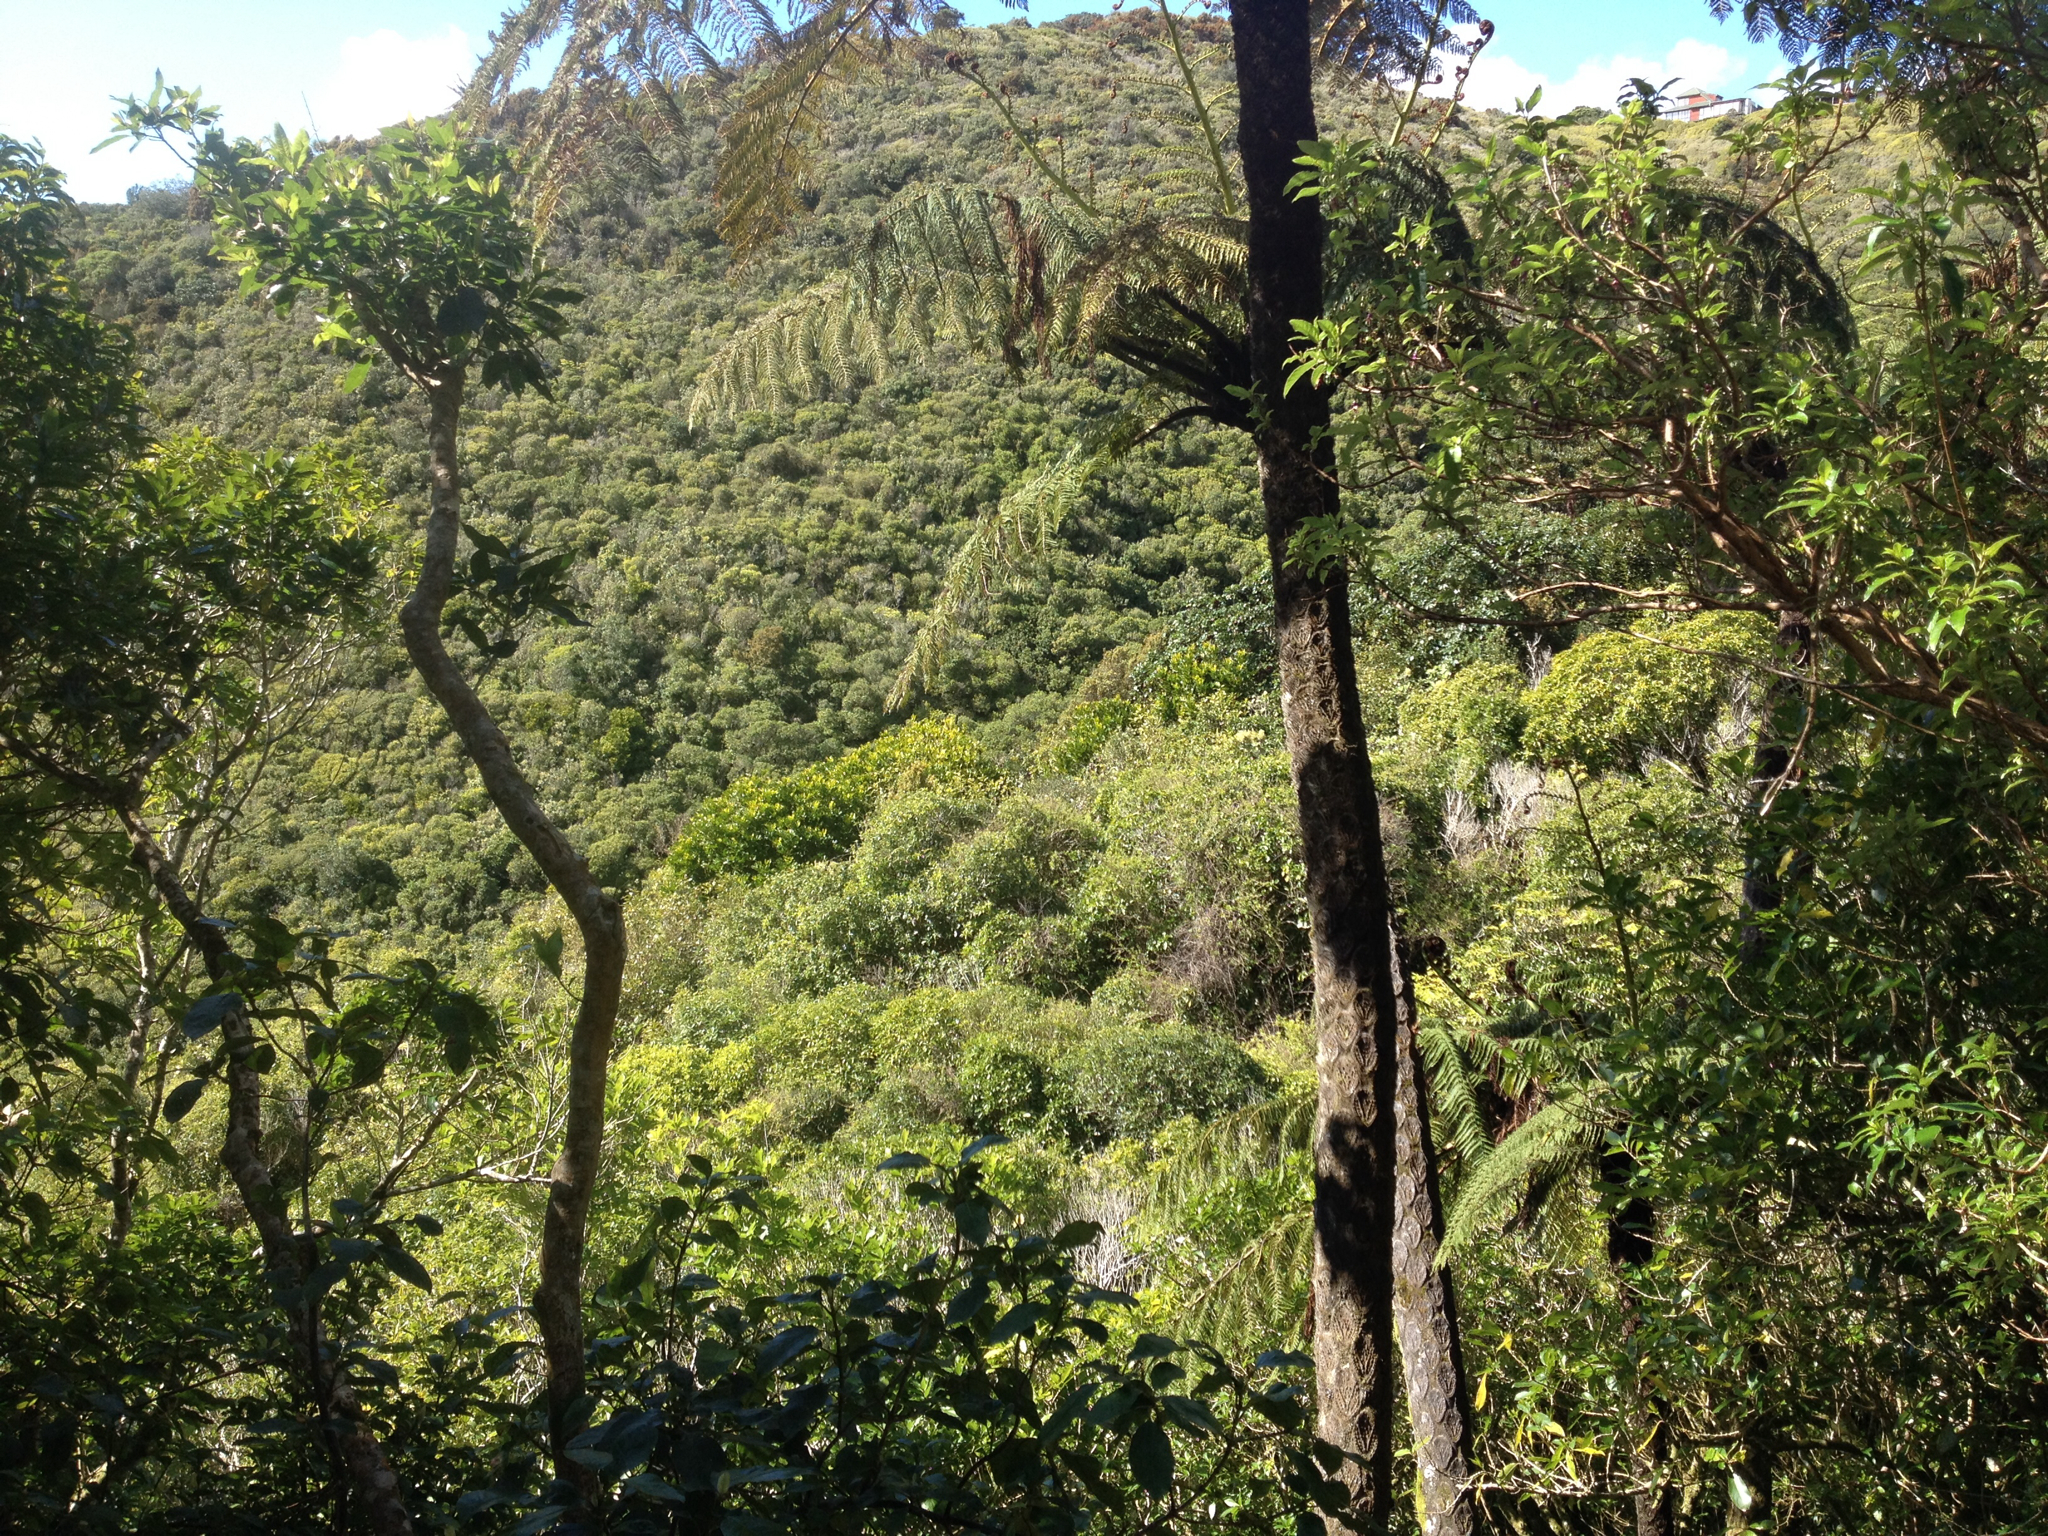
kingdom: Plantae
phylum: Tracheophyta
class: Magnoliopsida
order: Sapindales
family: Meliaceae
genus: Didymocheton
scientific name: Didymocheton spectabilis
